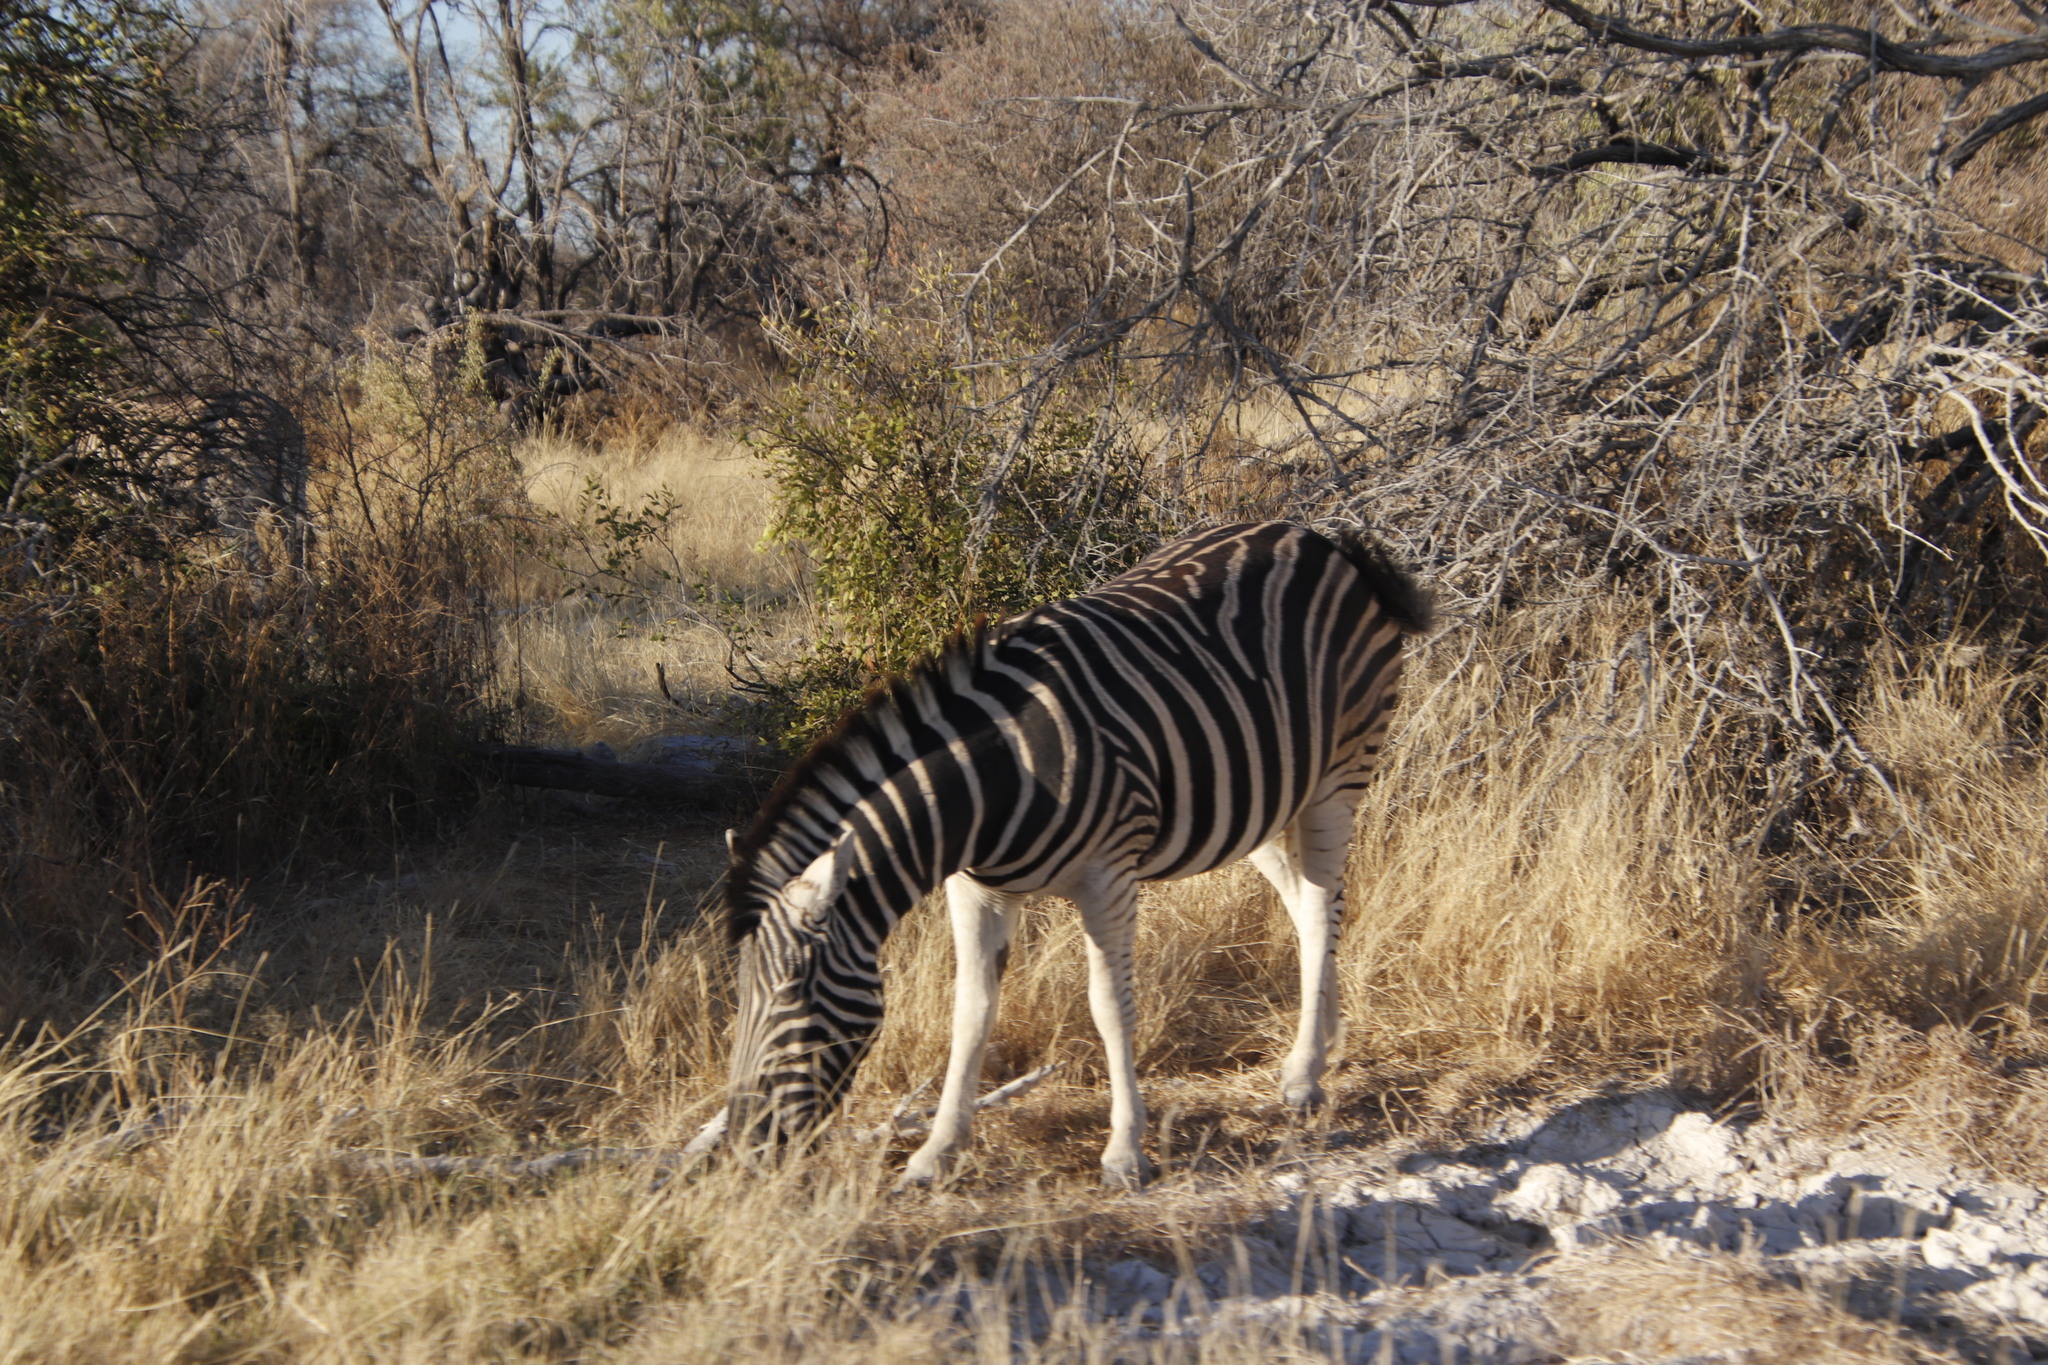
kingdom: Animalia
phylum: Chordata
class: Mammalia
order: Perissodactyla
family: Equidae
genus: Equus
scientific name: Equus quagga
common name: Plains zebra
